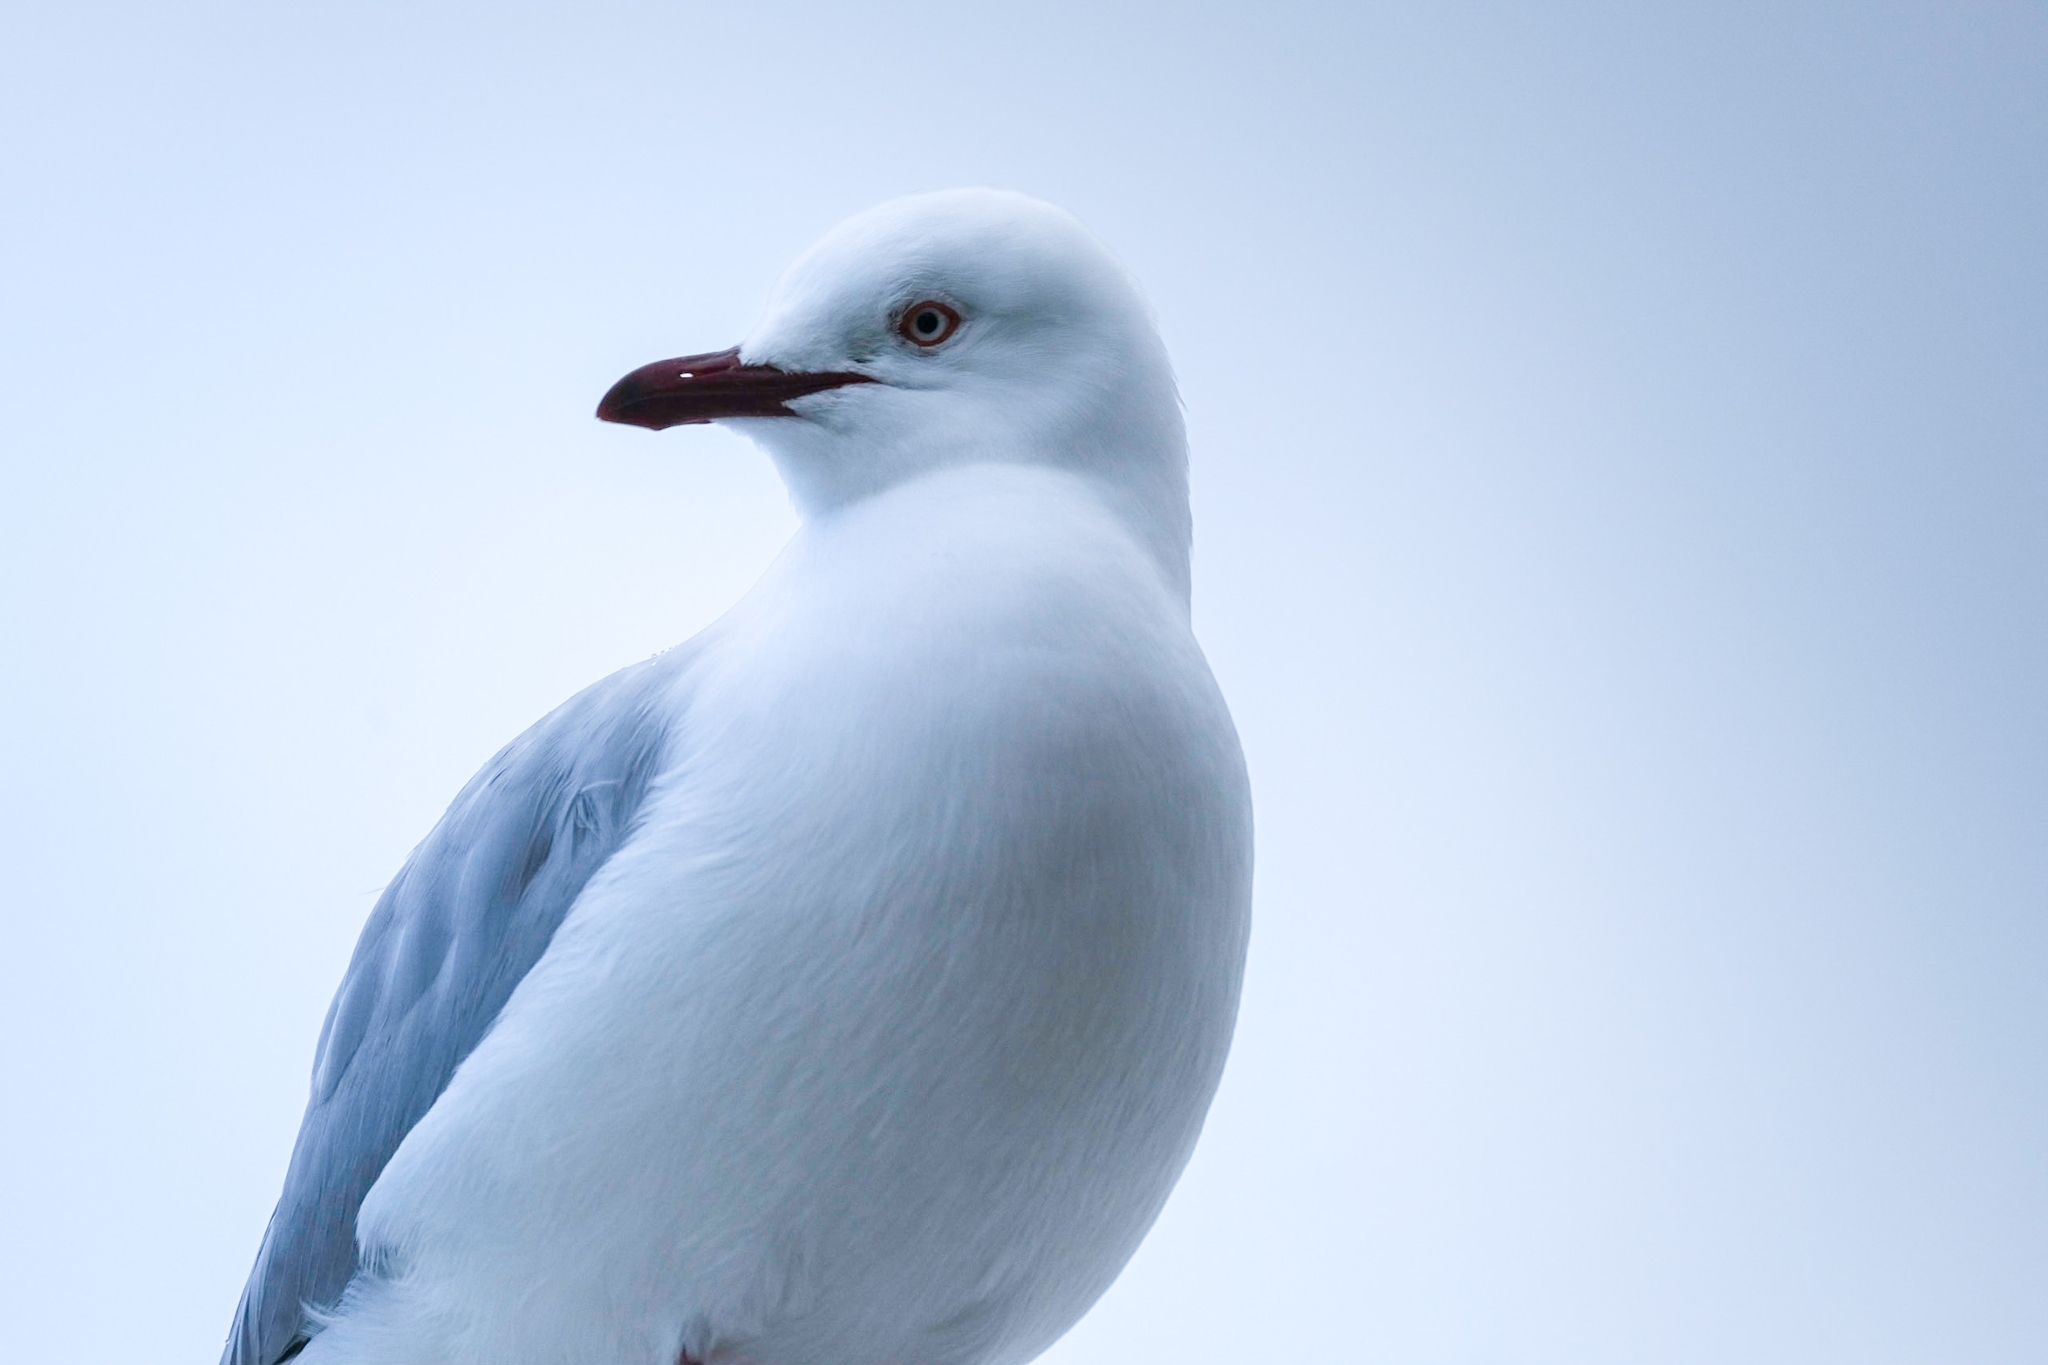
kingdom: Animalia
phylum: Chordata
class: Aves
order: Charadriiformes
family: Laridae
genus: Chroicocephalus
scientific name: Chroicocephalus novaehollandiae
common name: Silver gull
